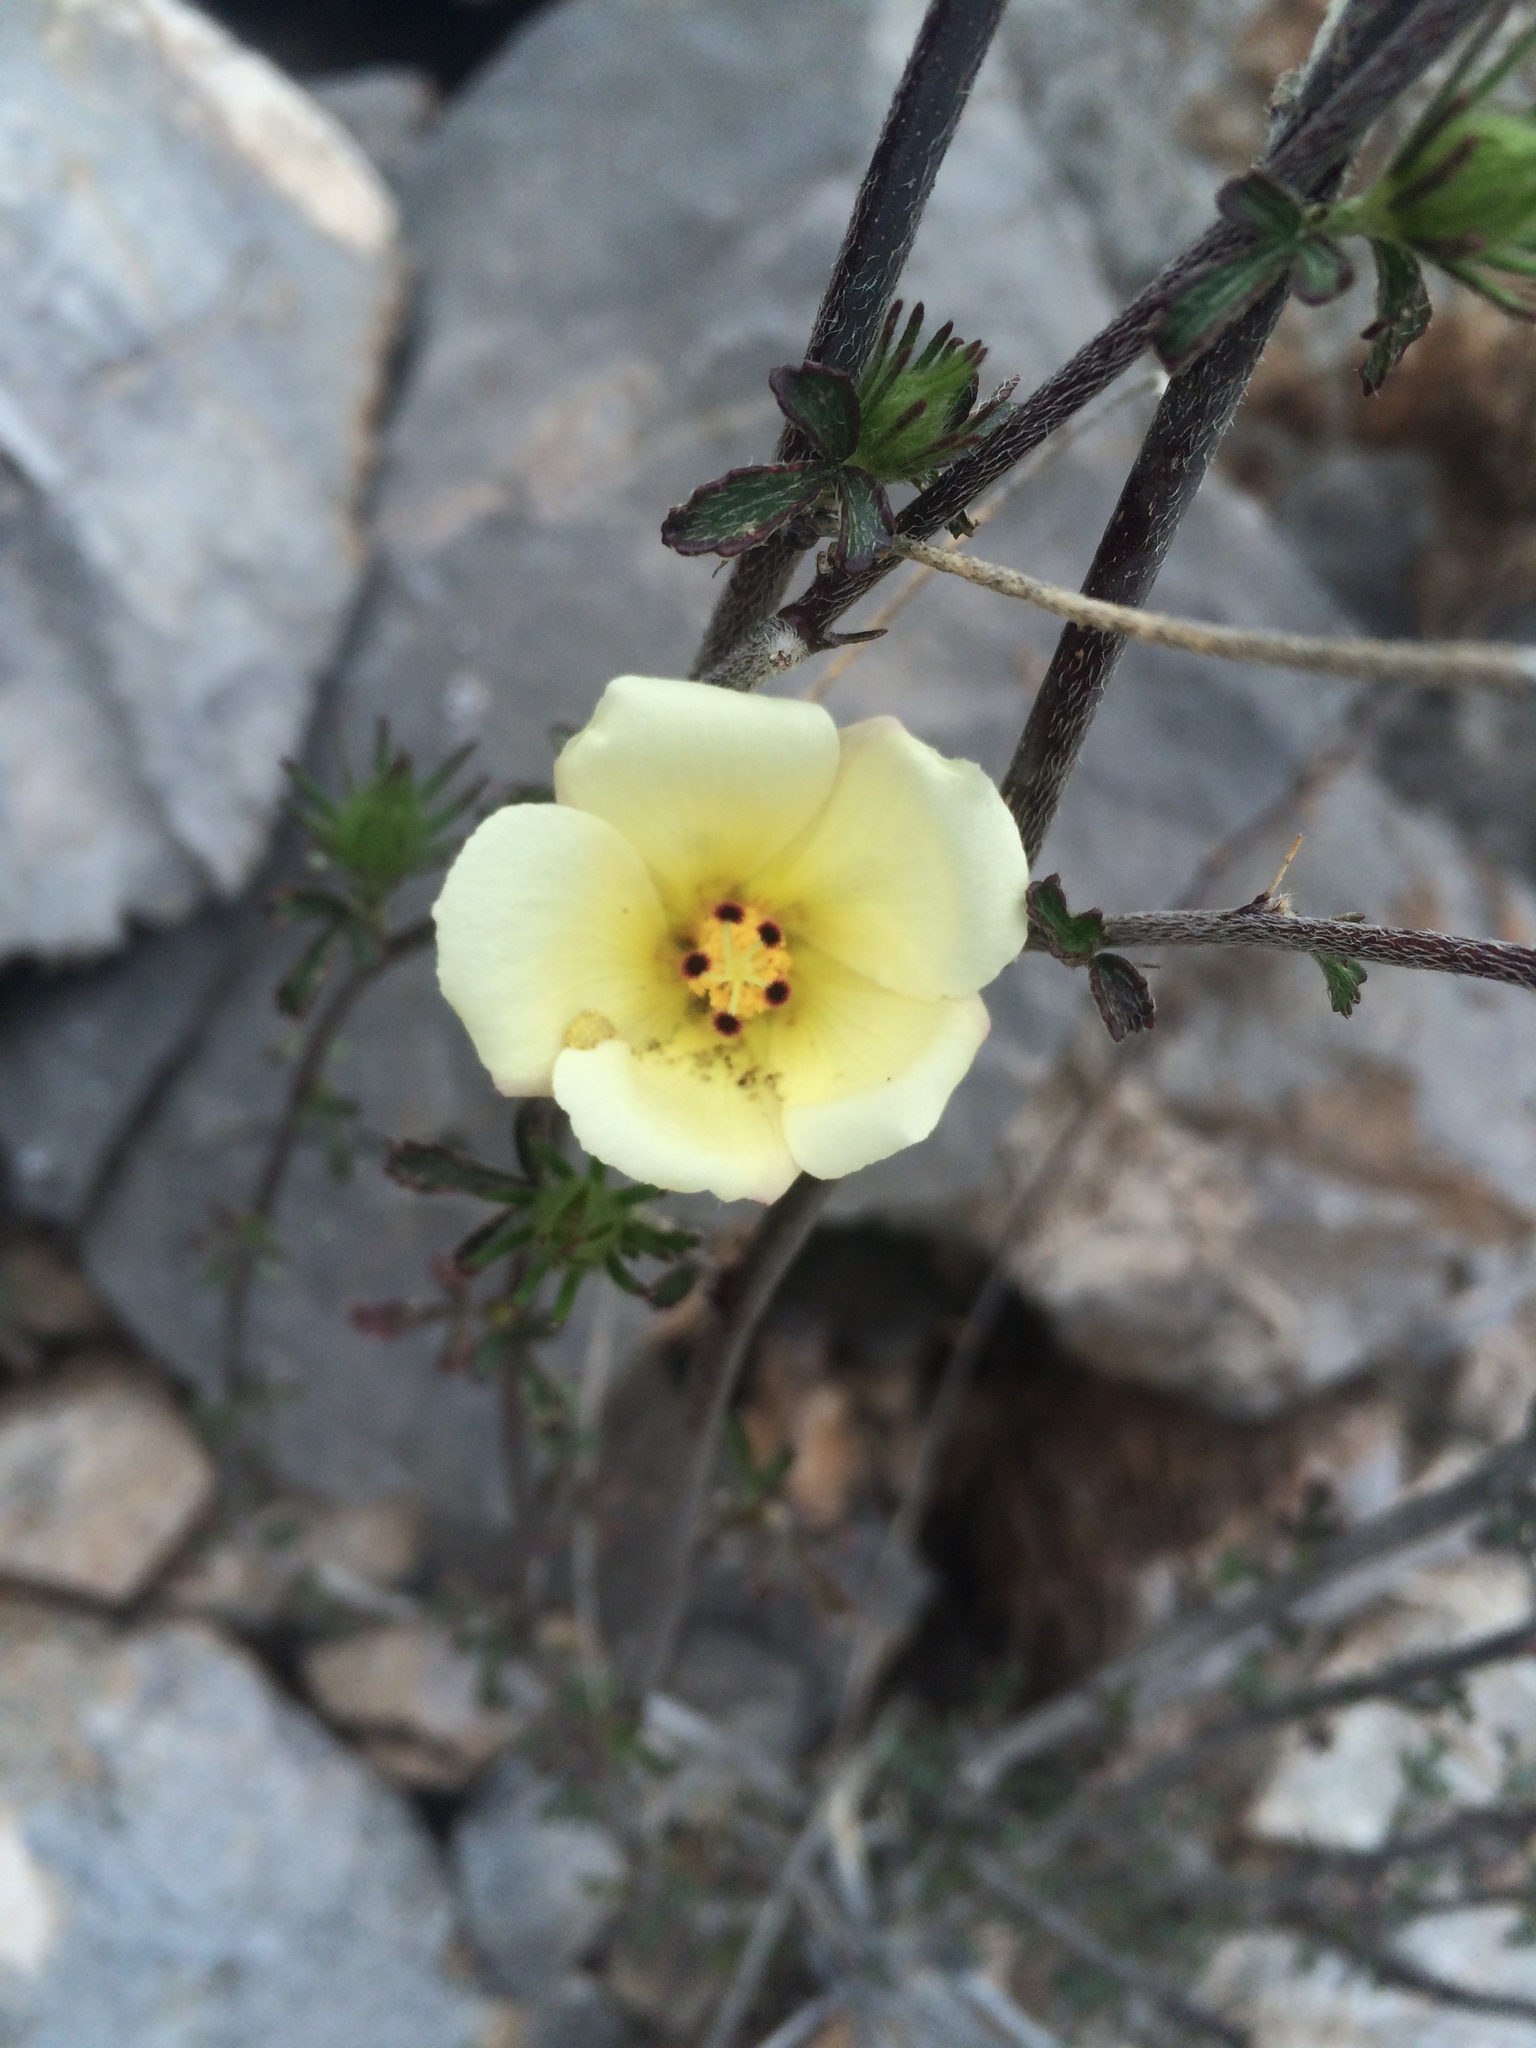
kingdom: Plantae
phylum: Tracheophyta
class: Magnoliopsida
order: Malvales
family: Malvaceae
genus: Hibiscus
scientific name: Hibiscus coulteri
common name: Desert rose-mallow
